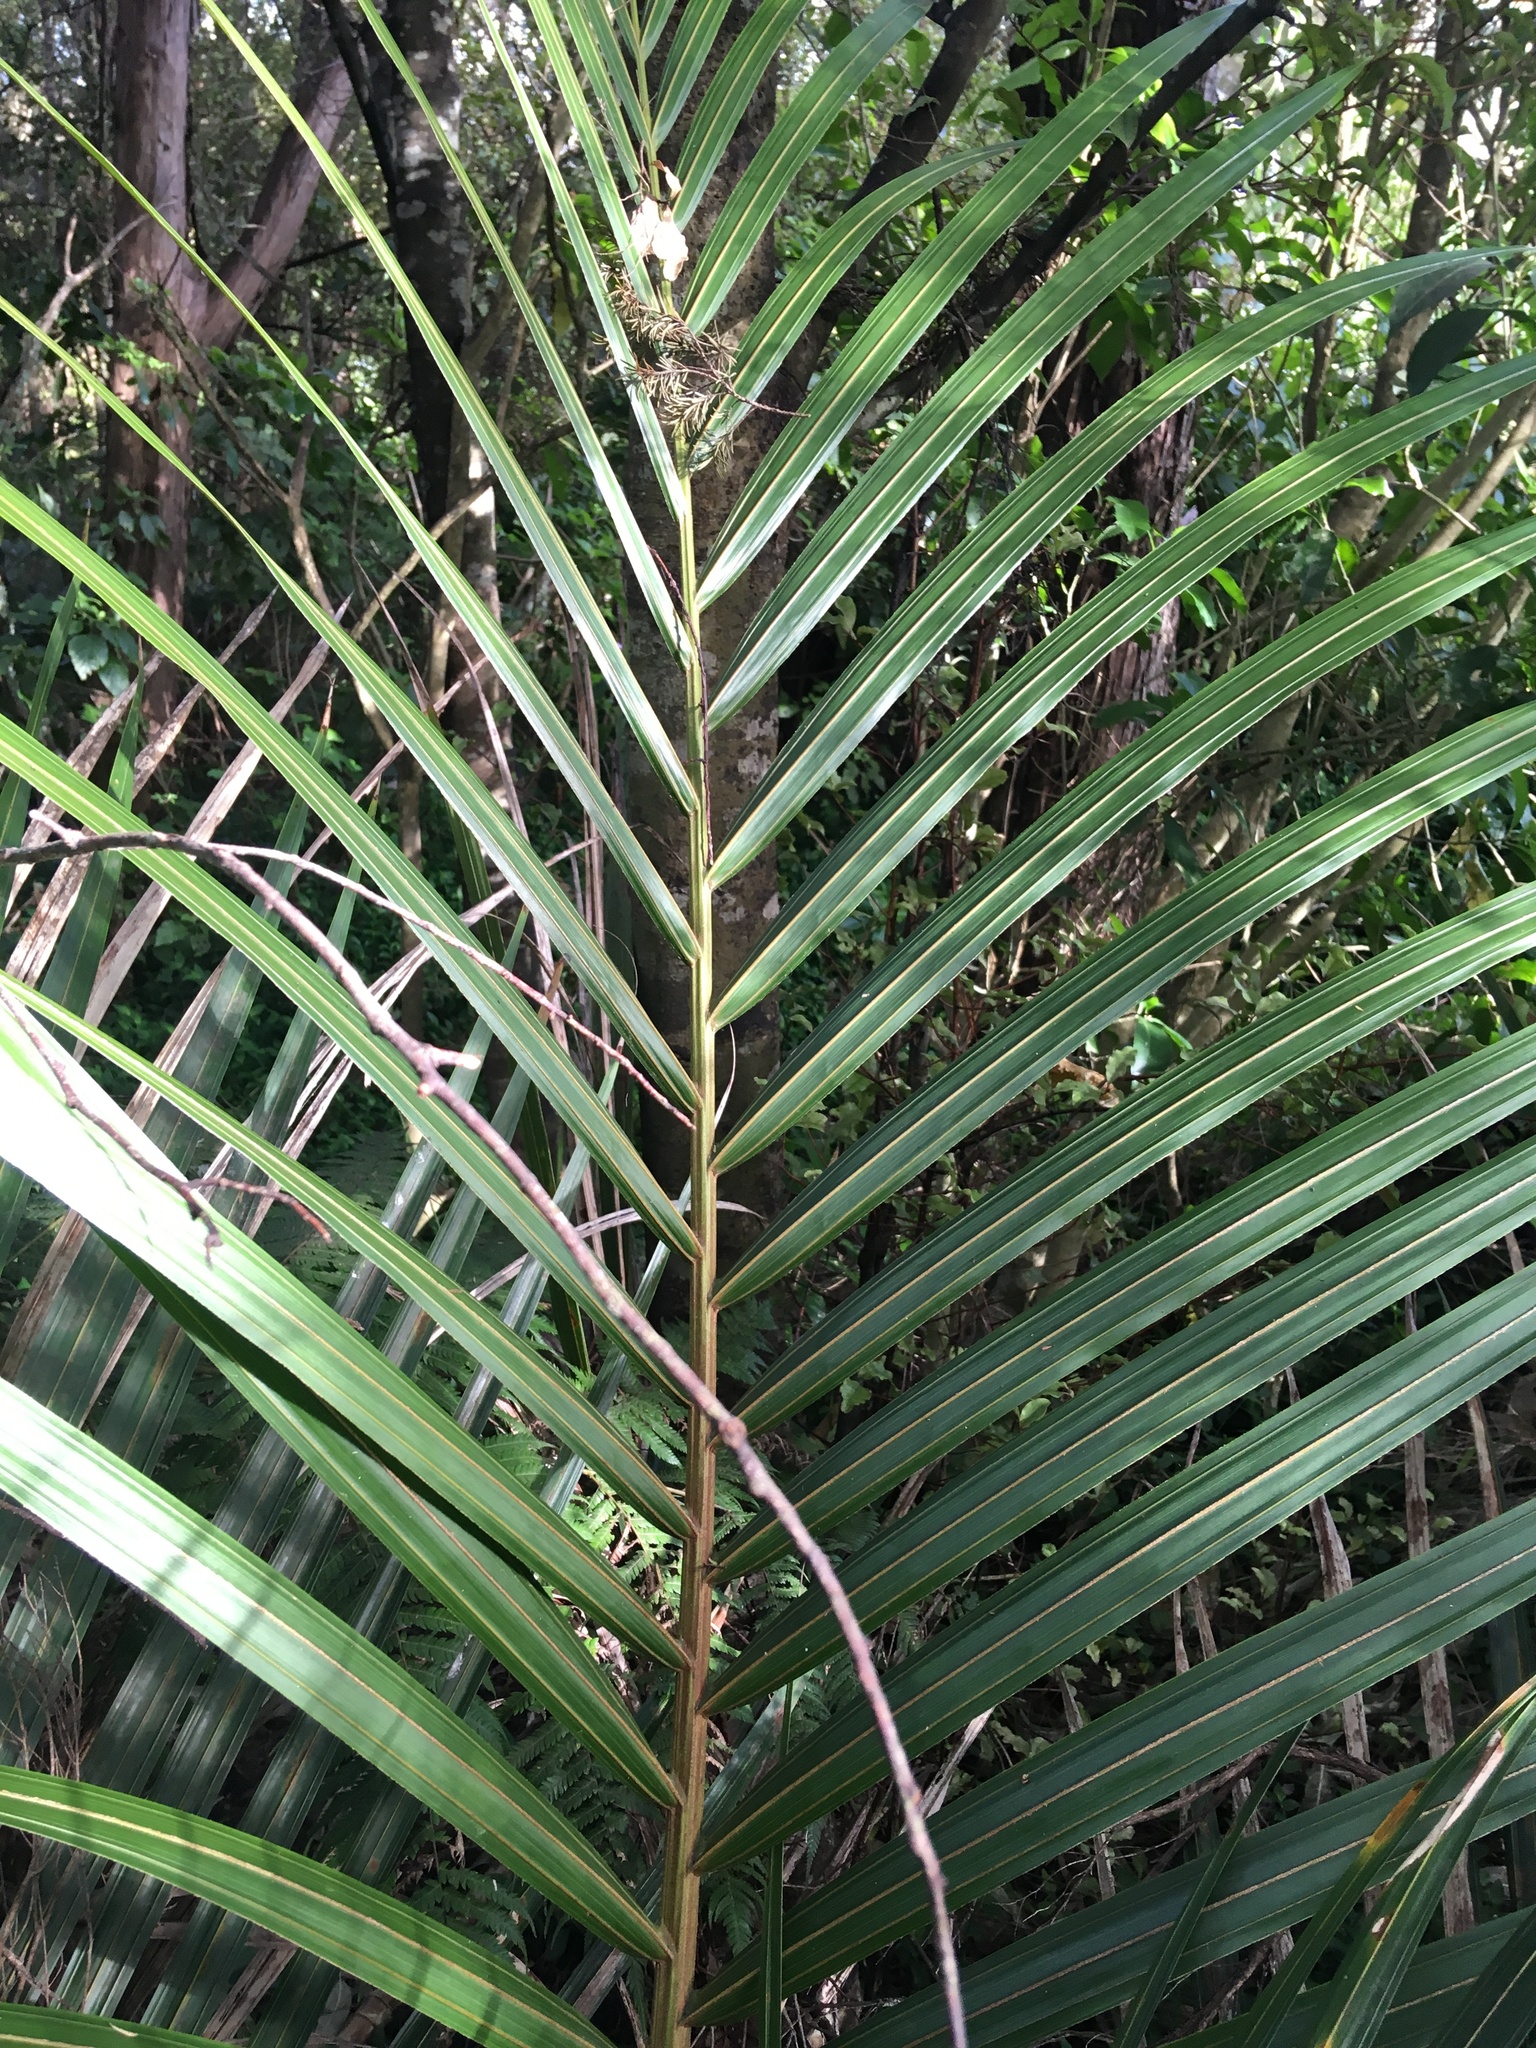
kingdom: Plantae
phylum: Tracheophyta
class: Liliopsida
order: Arecales
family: Arecaceae
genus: Rhopalostylis
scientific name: Rhopalostylis sapida
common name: Feather-duster palm
